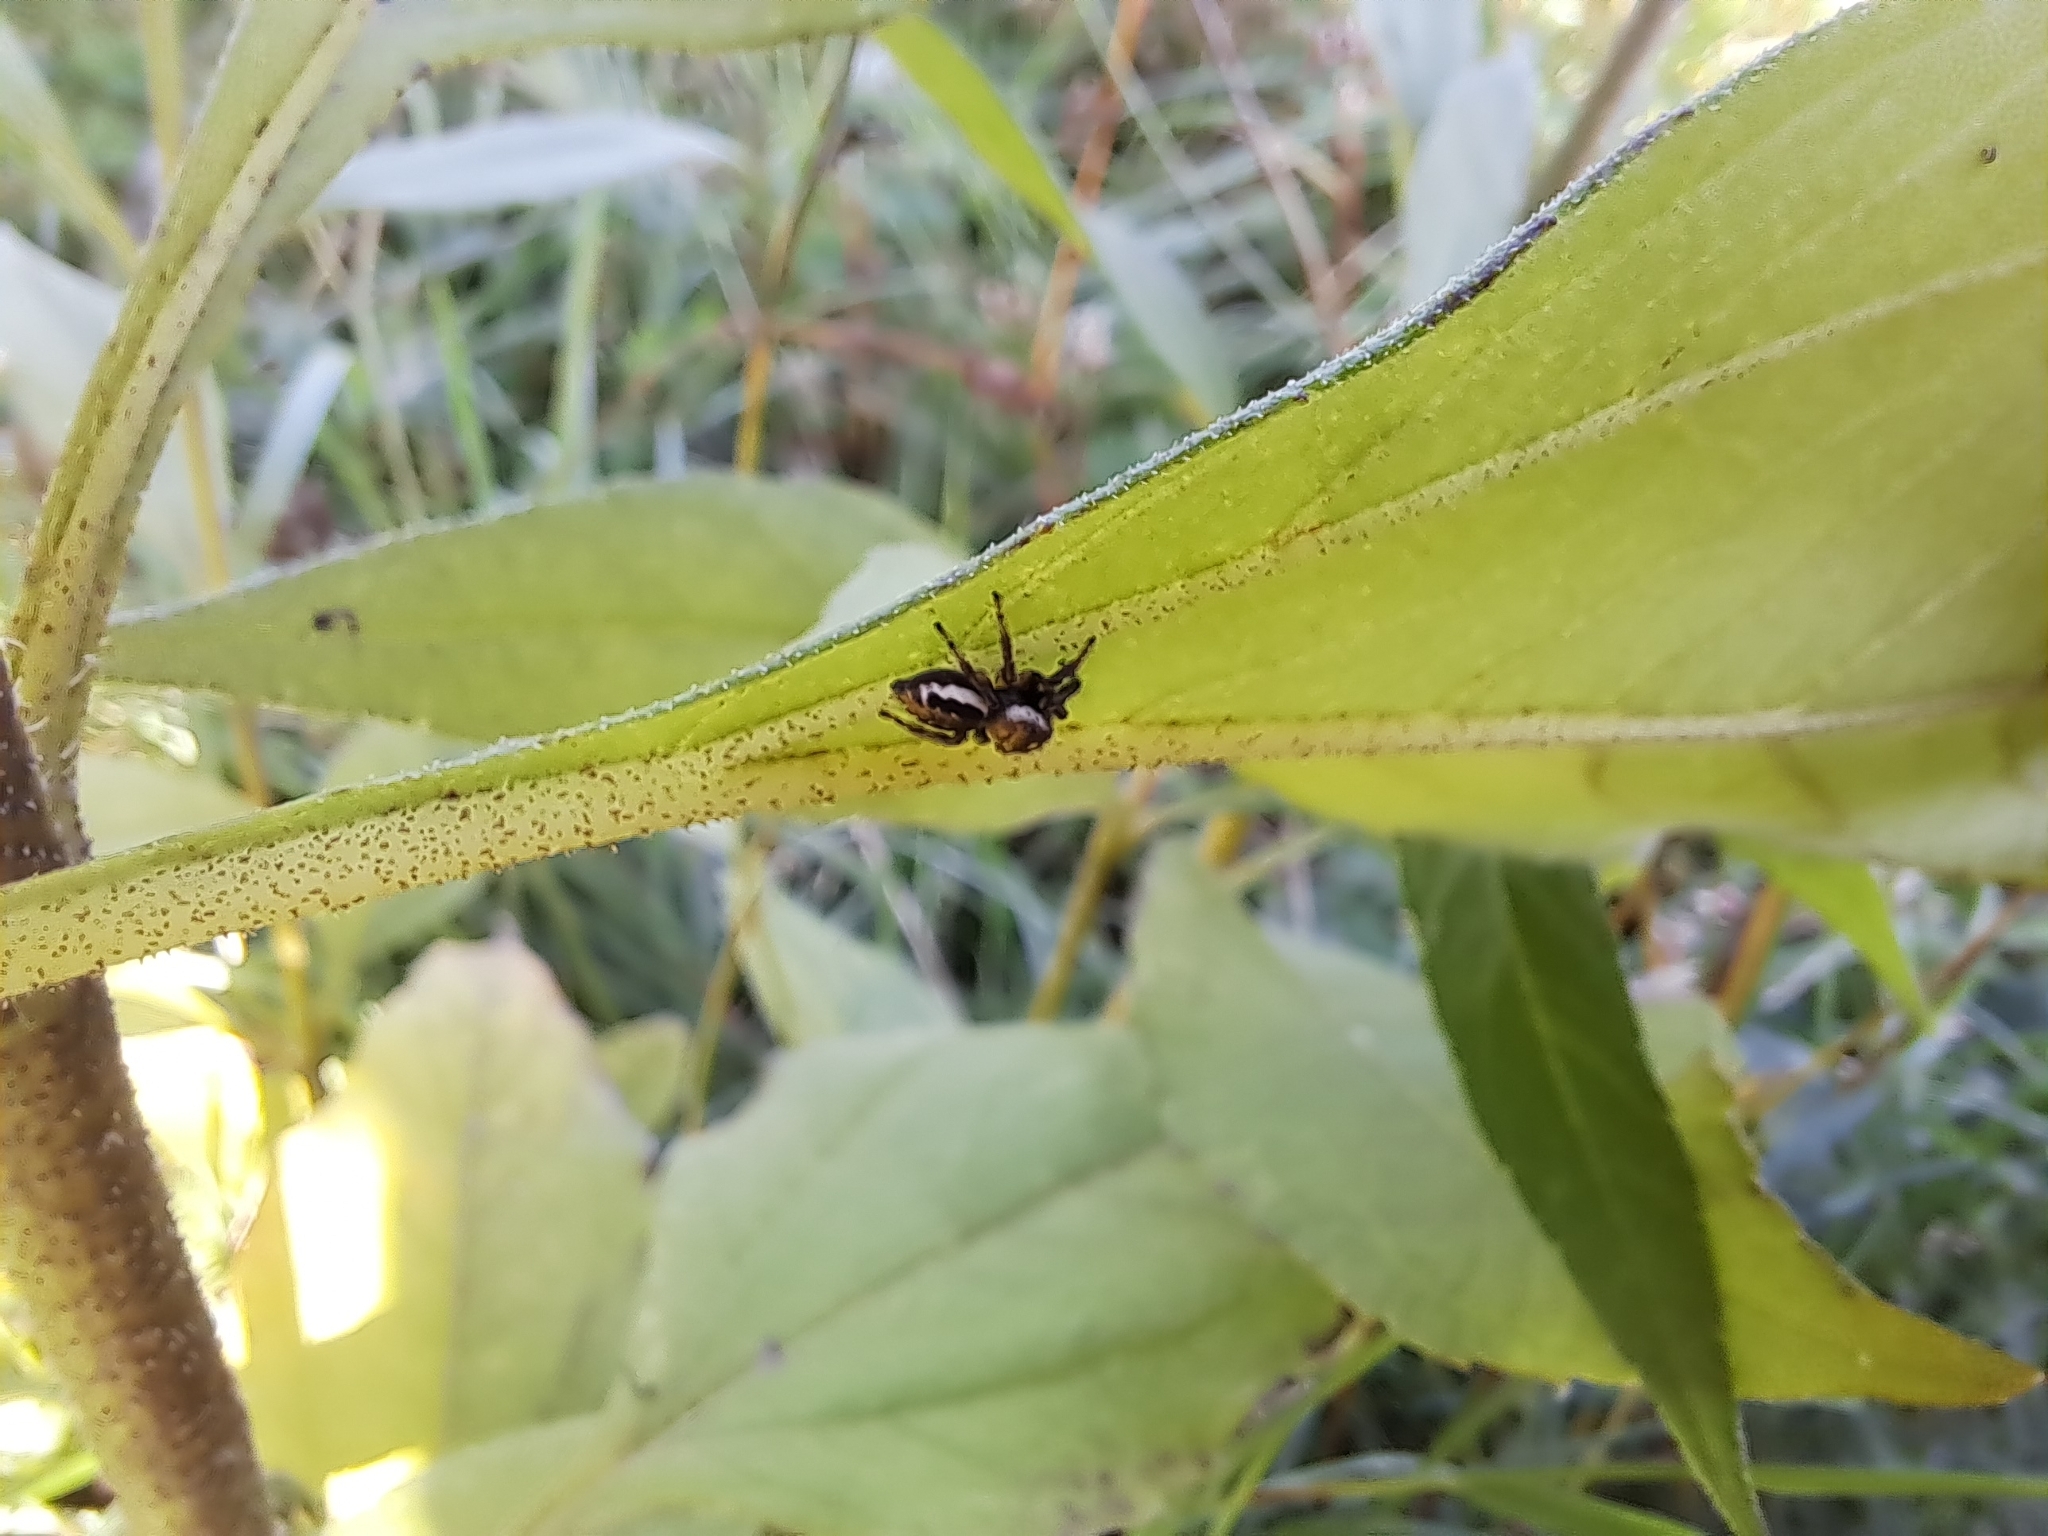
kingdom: Animalia
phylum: Arthropoda
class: Arachnida
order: Araneae
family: Salticidae
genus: Eris
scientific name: Eris militaris
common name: Bronze jumper
